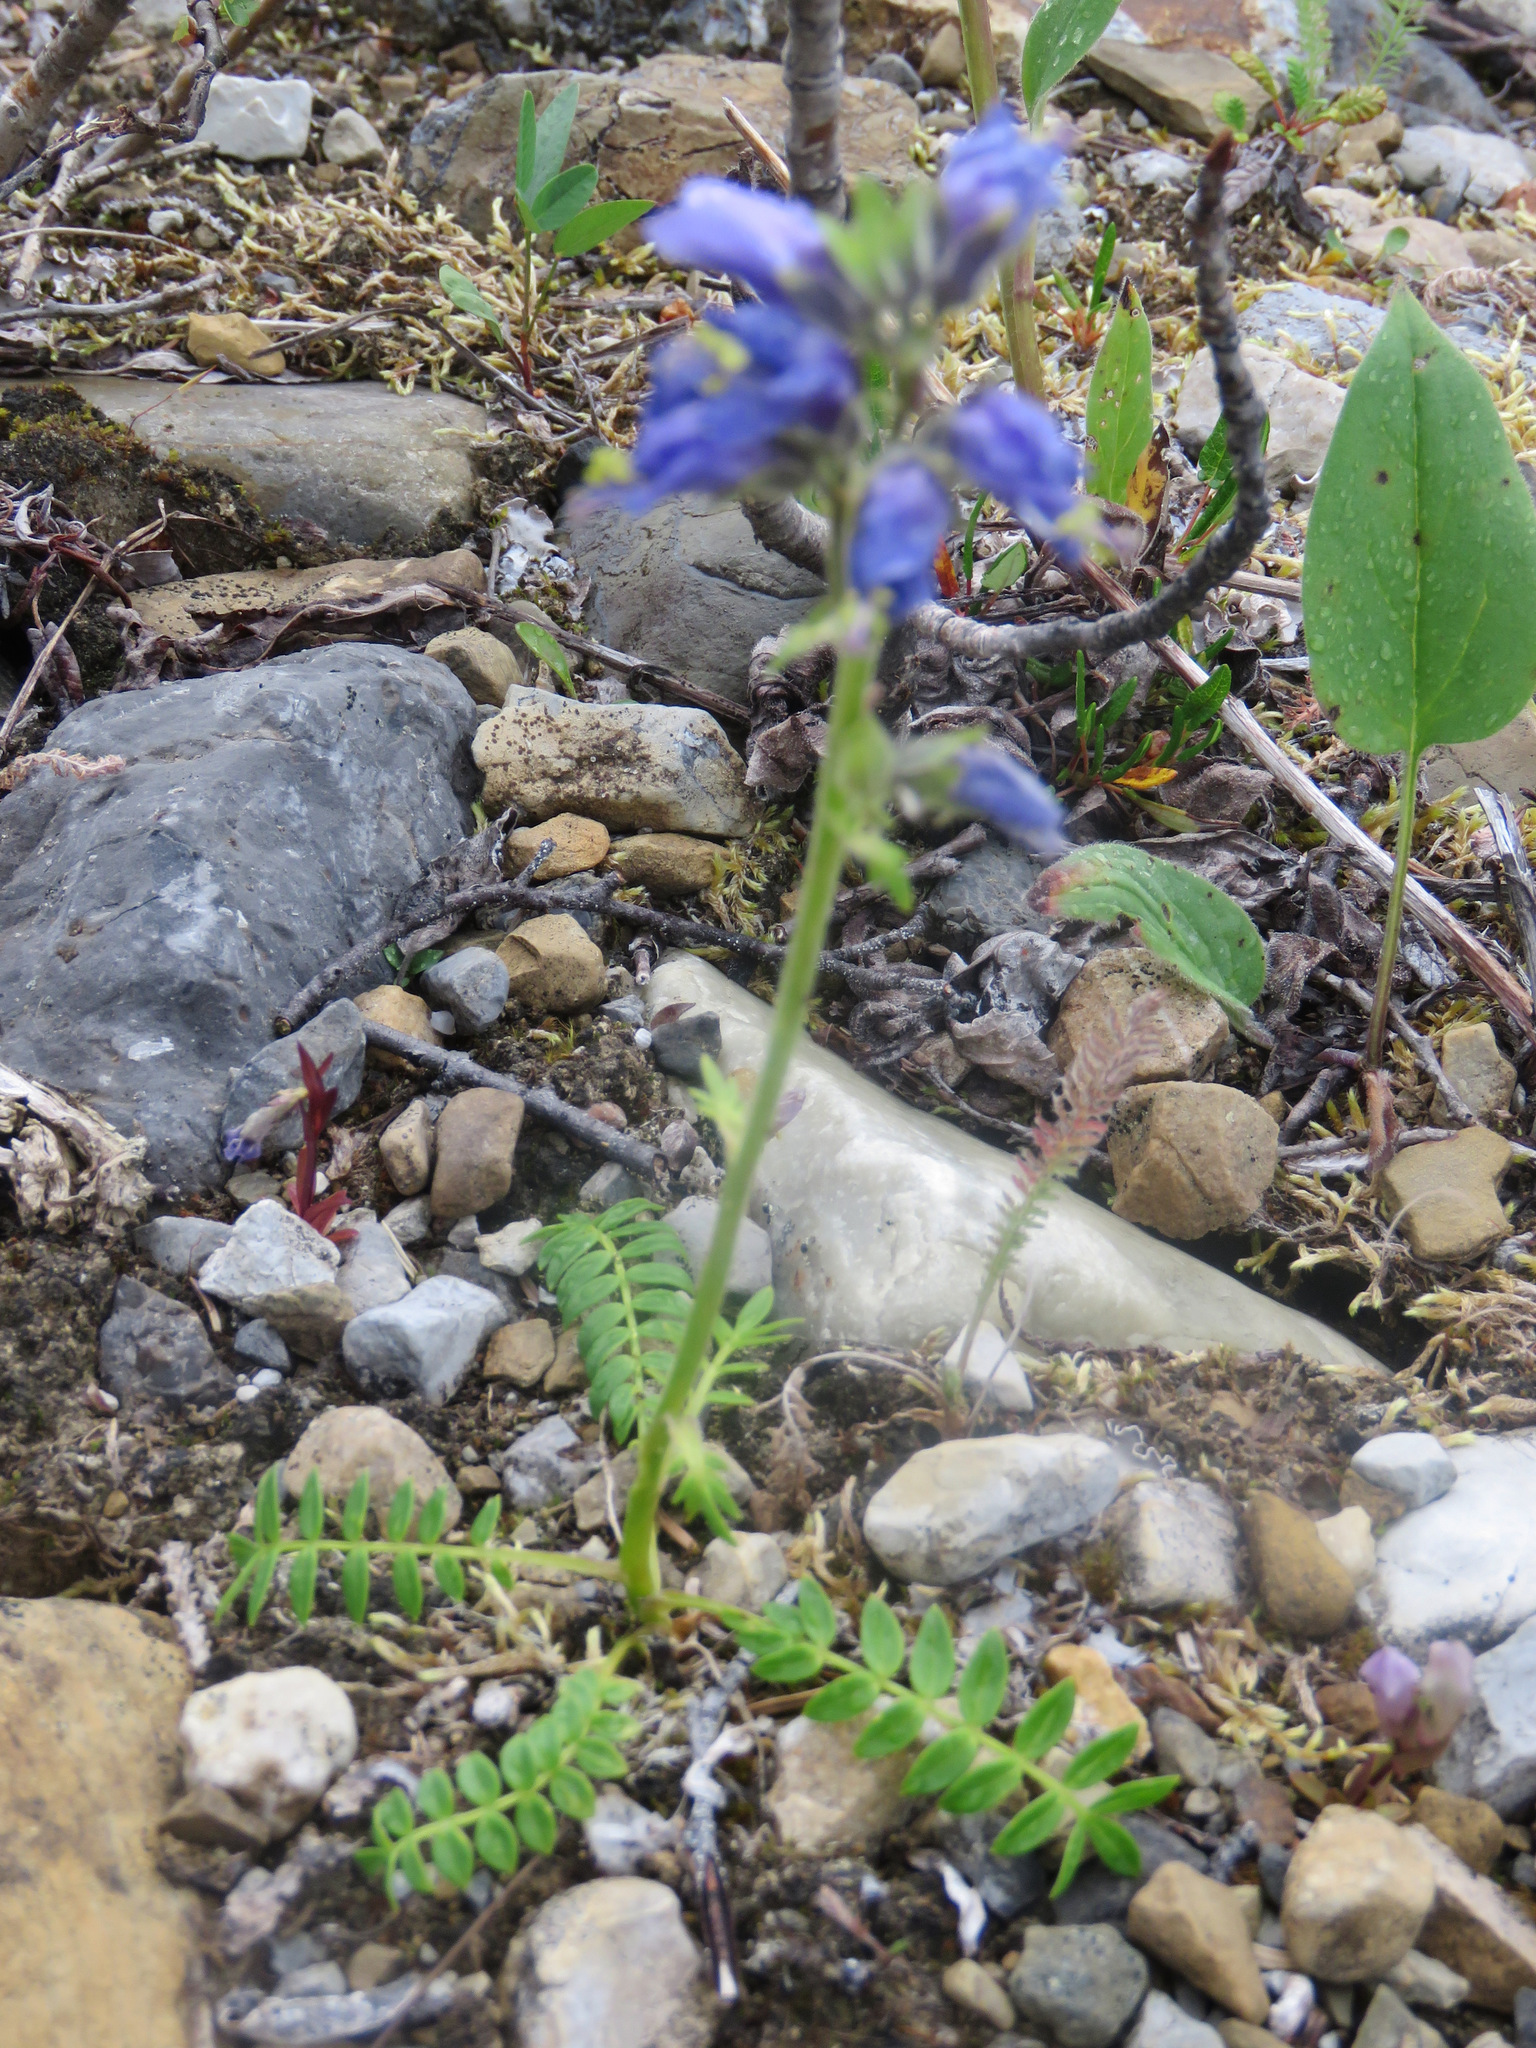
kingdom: Plantae
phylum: Tracheophyta
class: Magnoliopsida
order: Ericales
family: Polemoniaceae
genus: Polemonium
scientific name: Polemonium acutiflorum
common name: Tall jacob's-ladder
